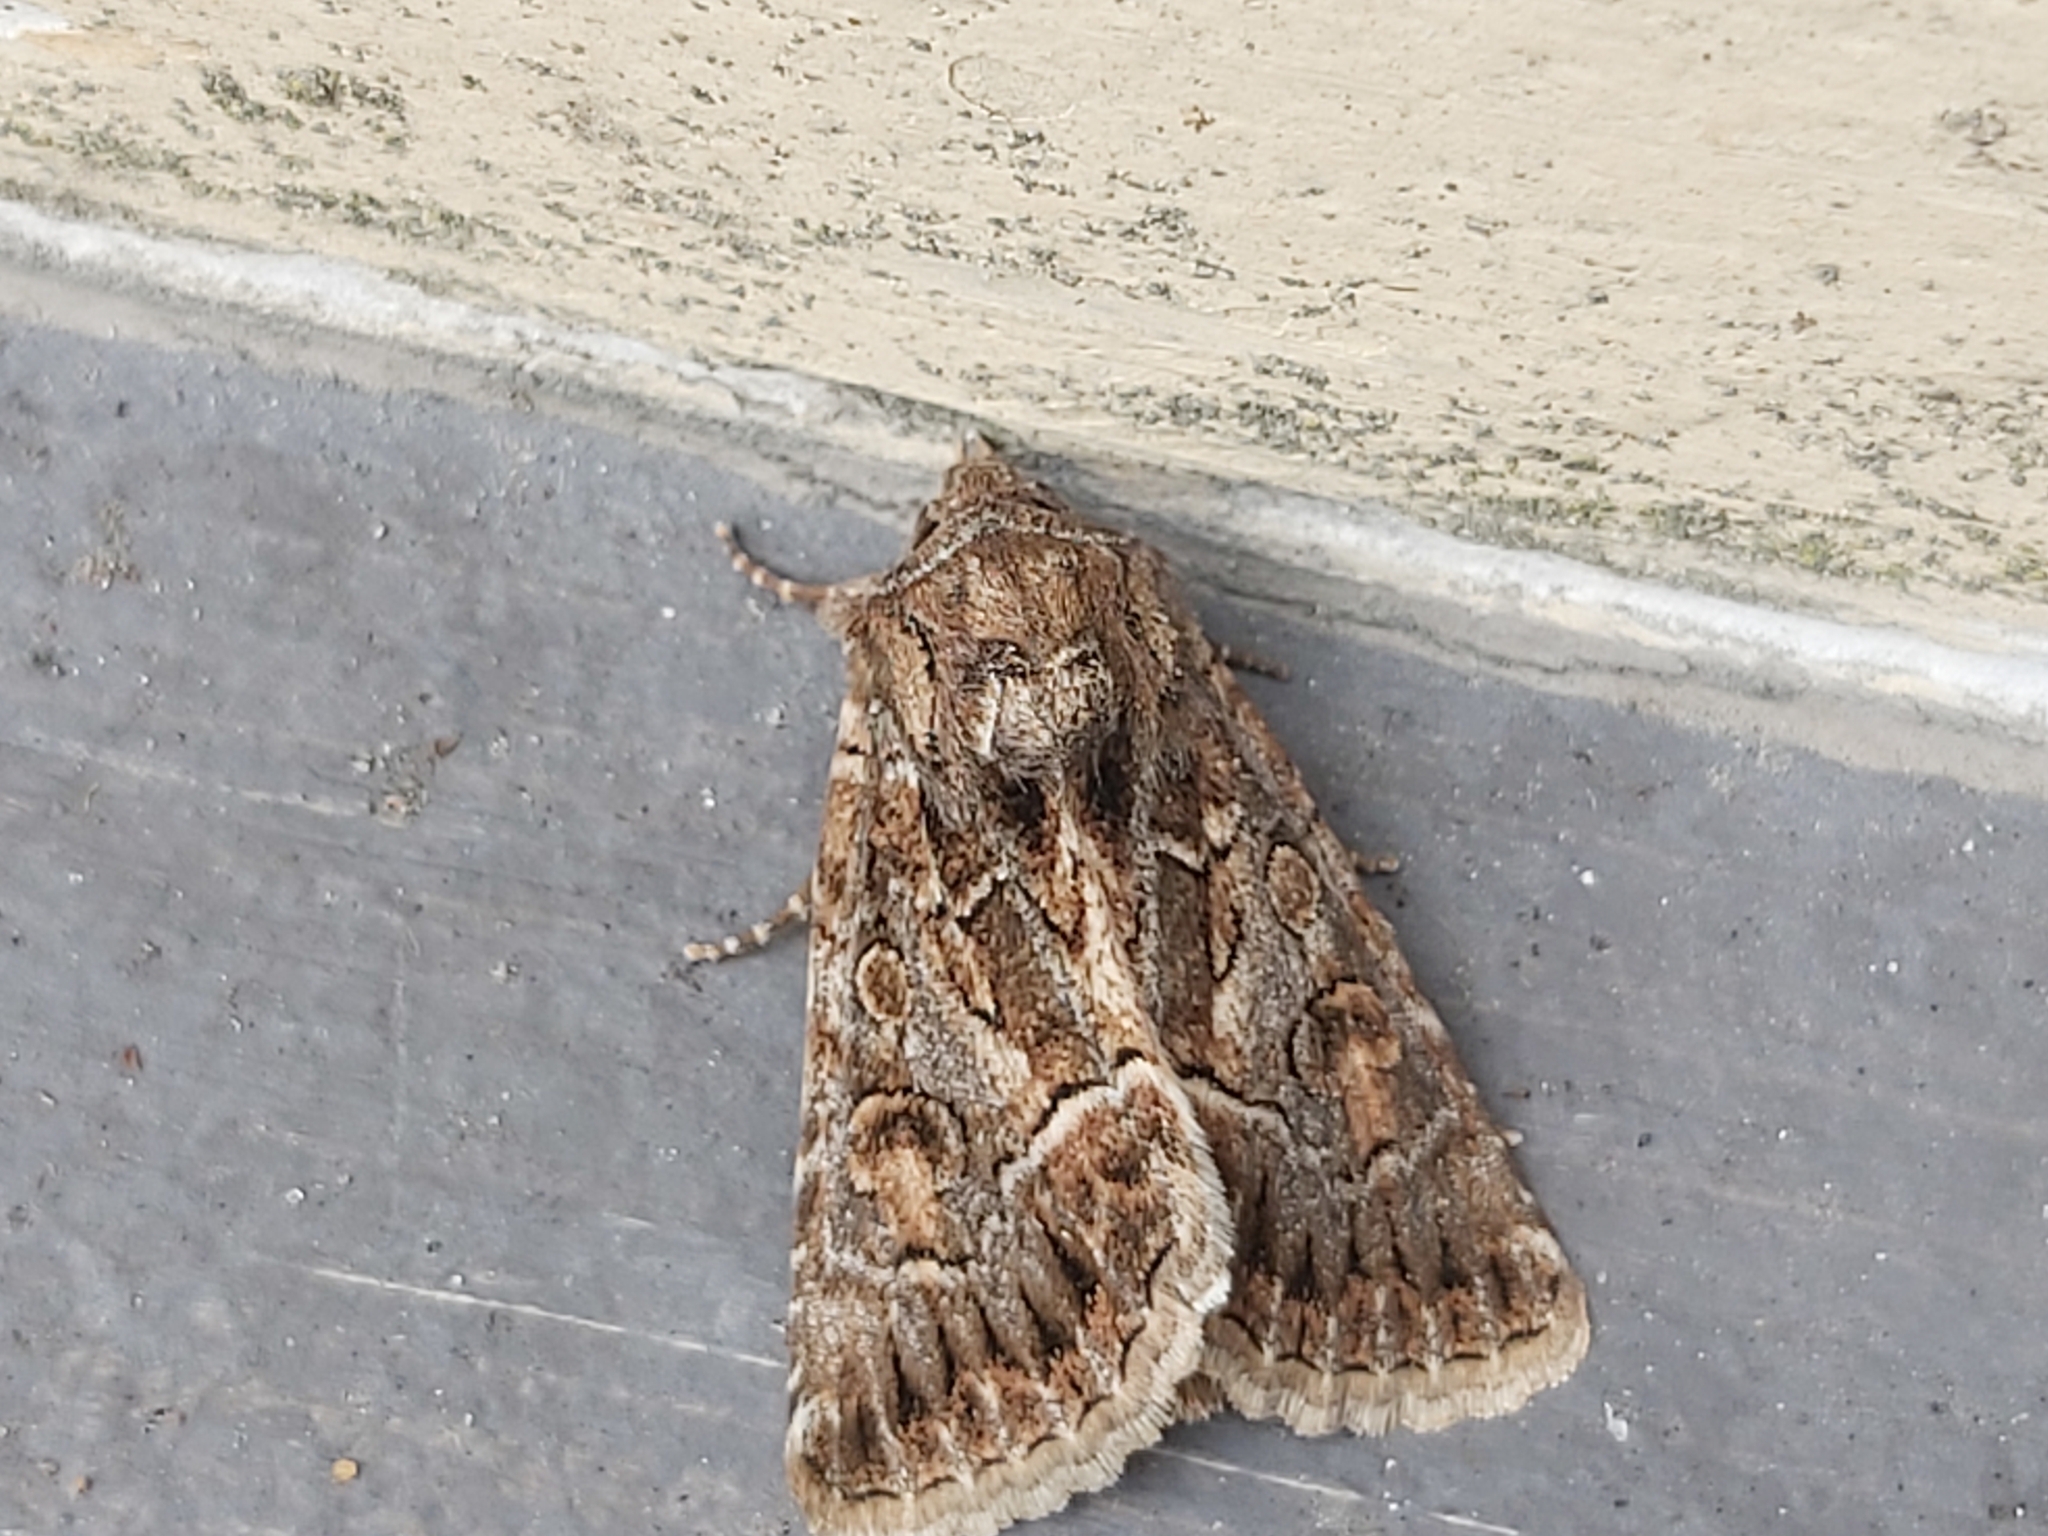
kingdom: Animalia
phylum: Arthropoda
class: Insecta
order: Lepidoptera
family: Noctuidae
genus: Thalpophila
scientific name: Thalpophila matura
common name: Straw underwing
